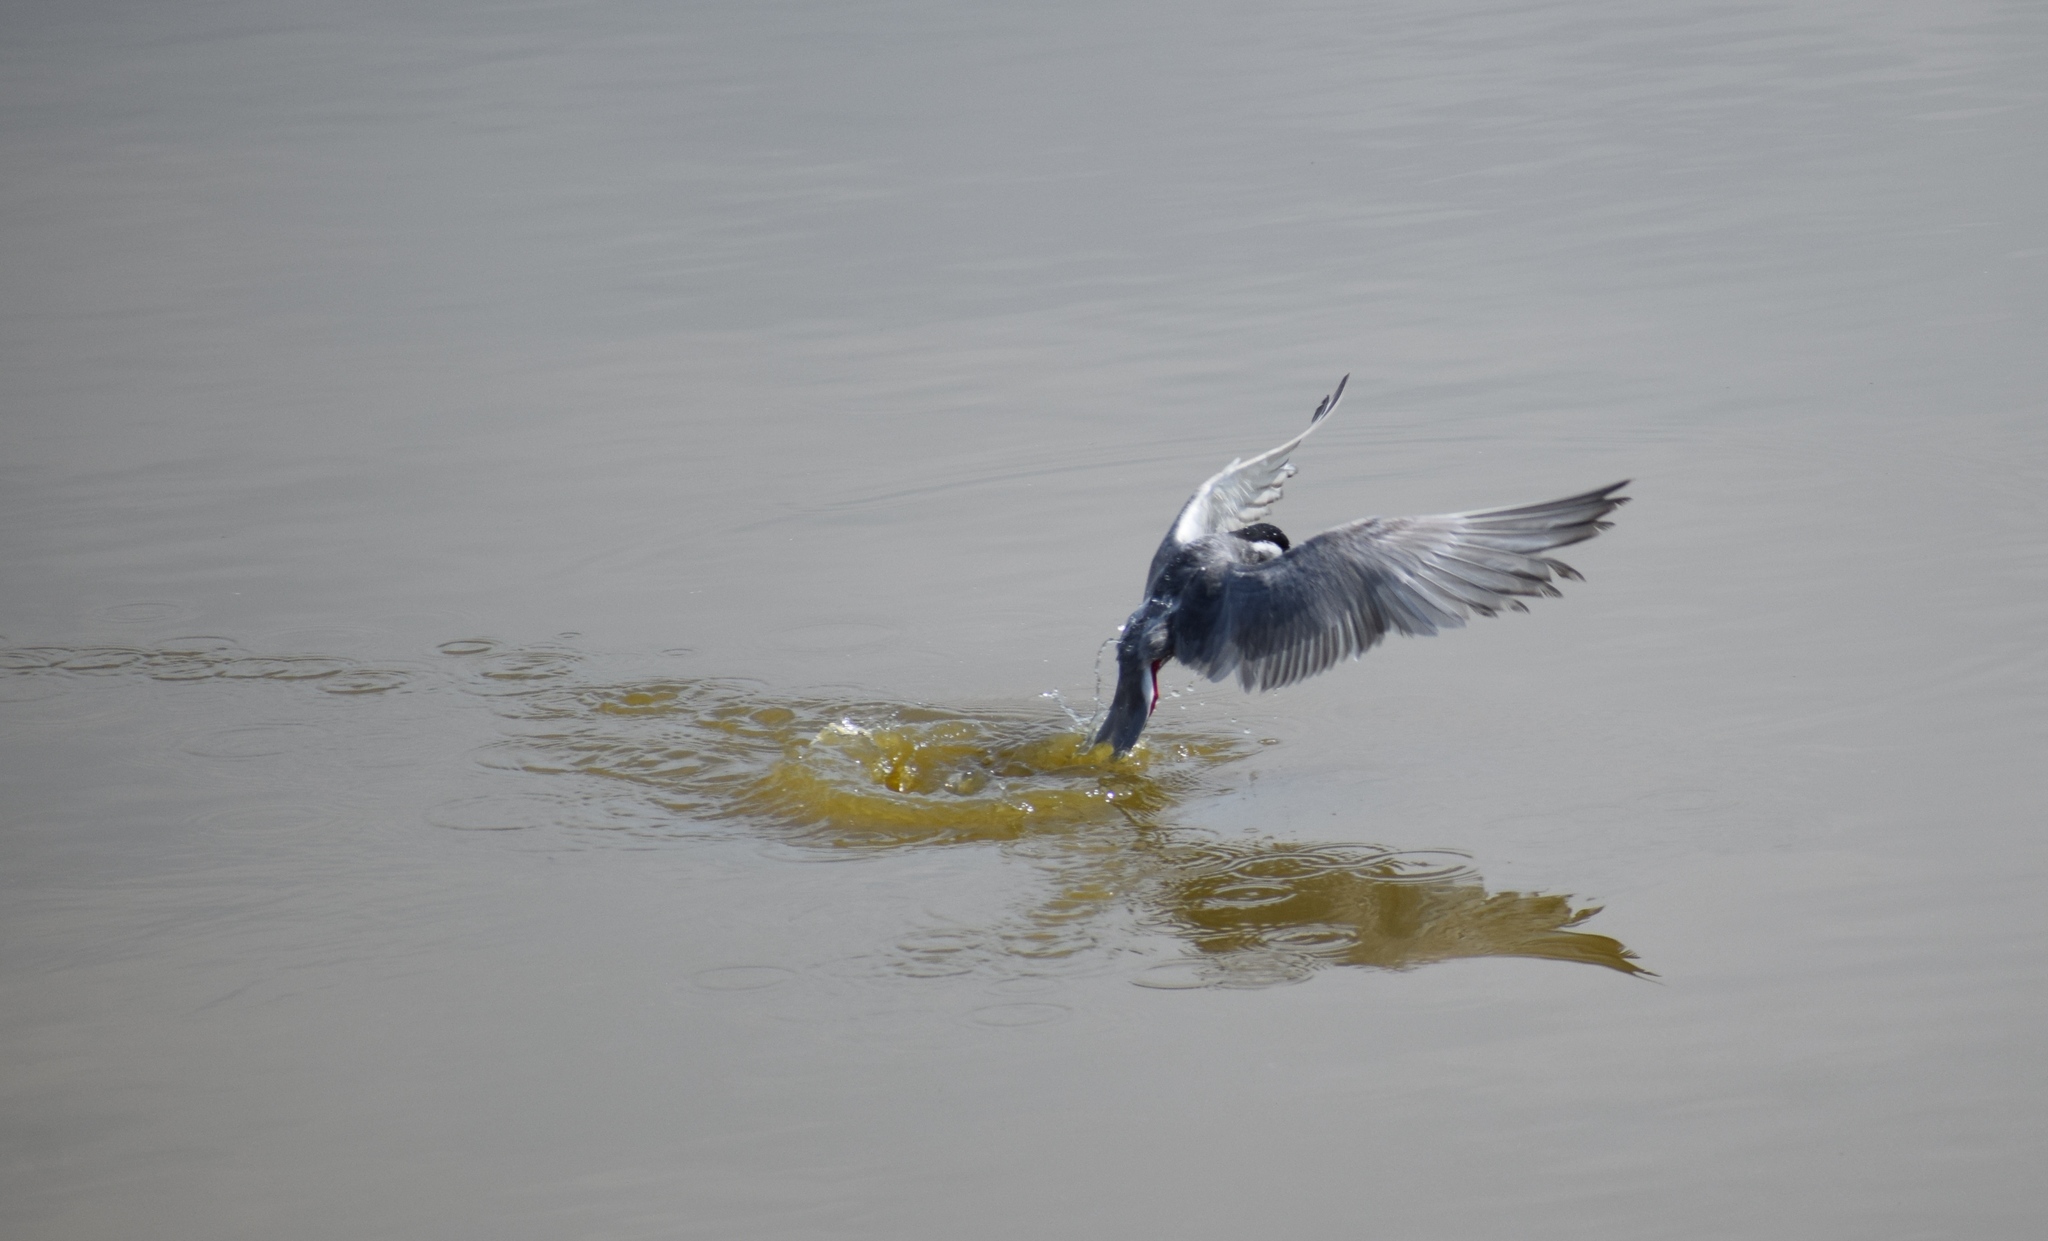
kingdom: Animalia
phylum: Chordata
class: Aves
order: Charadriiformes
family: Laridae
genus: Chlidonias
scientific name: Chlidonias hybrida
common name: Whiskered tern
